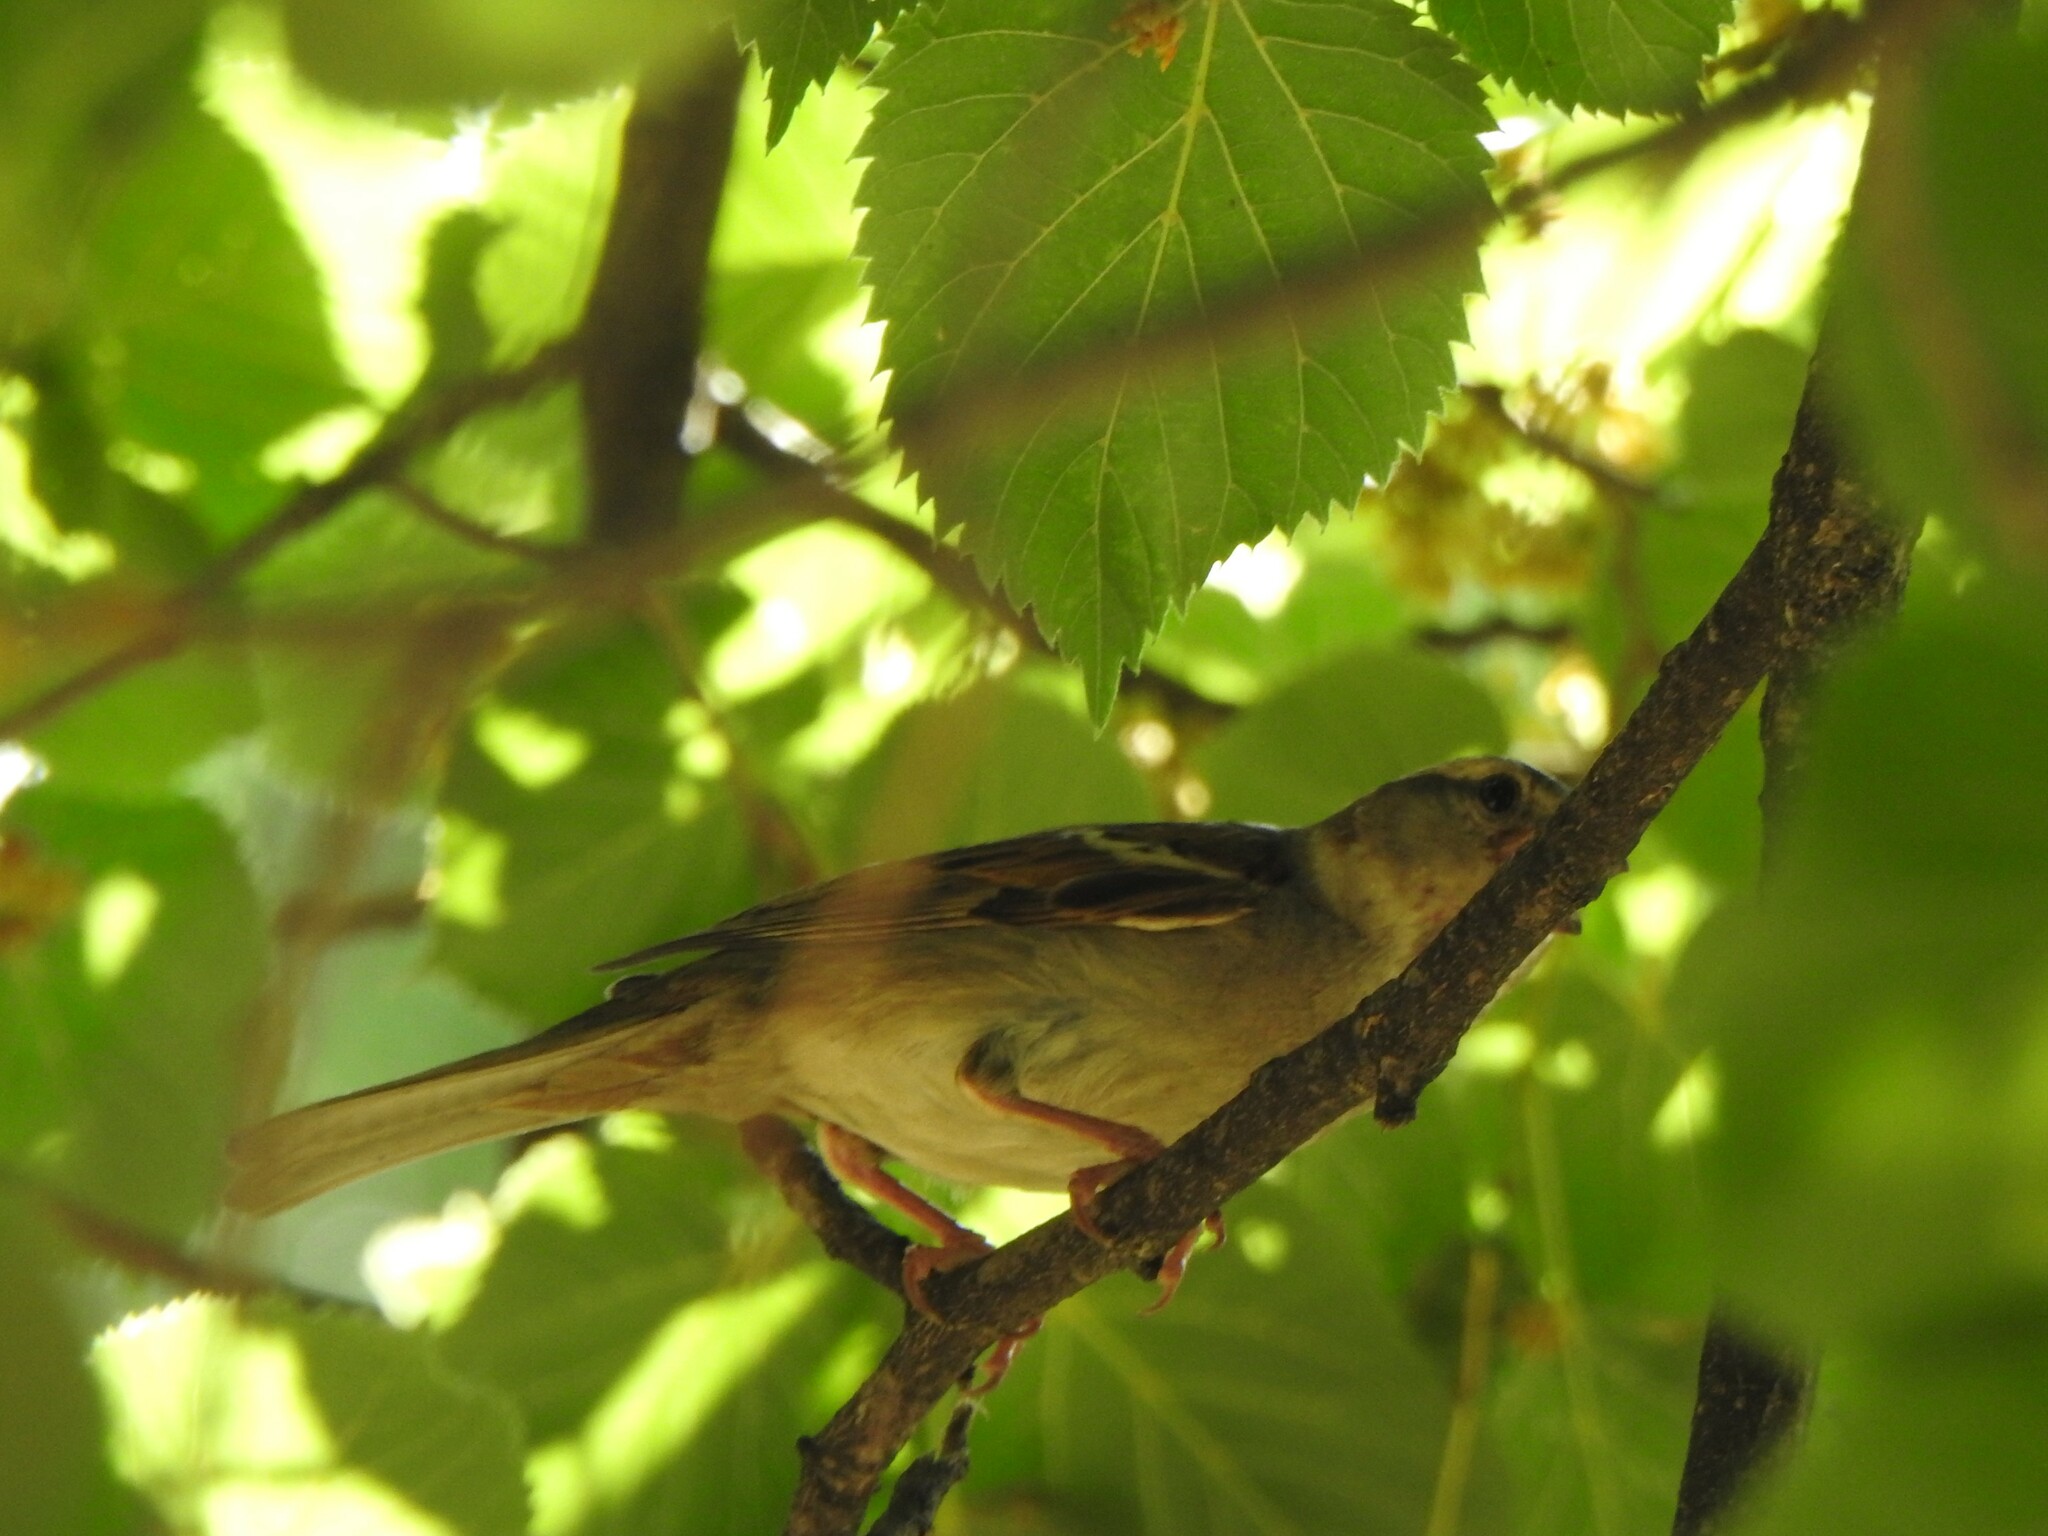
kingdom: Animalia
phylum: Chordata
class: Aves
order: Passeriformes
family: Passeridae
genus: Passer
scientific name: Passer domesticus
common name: House sparrow
